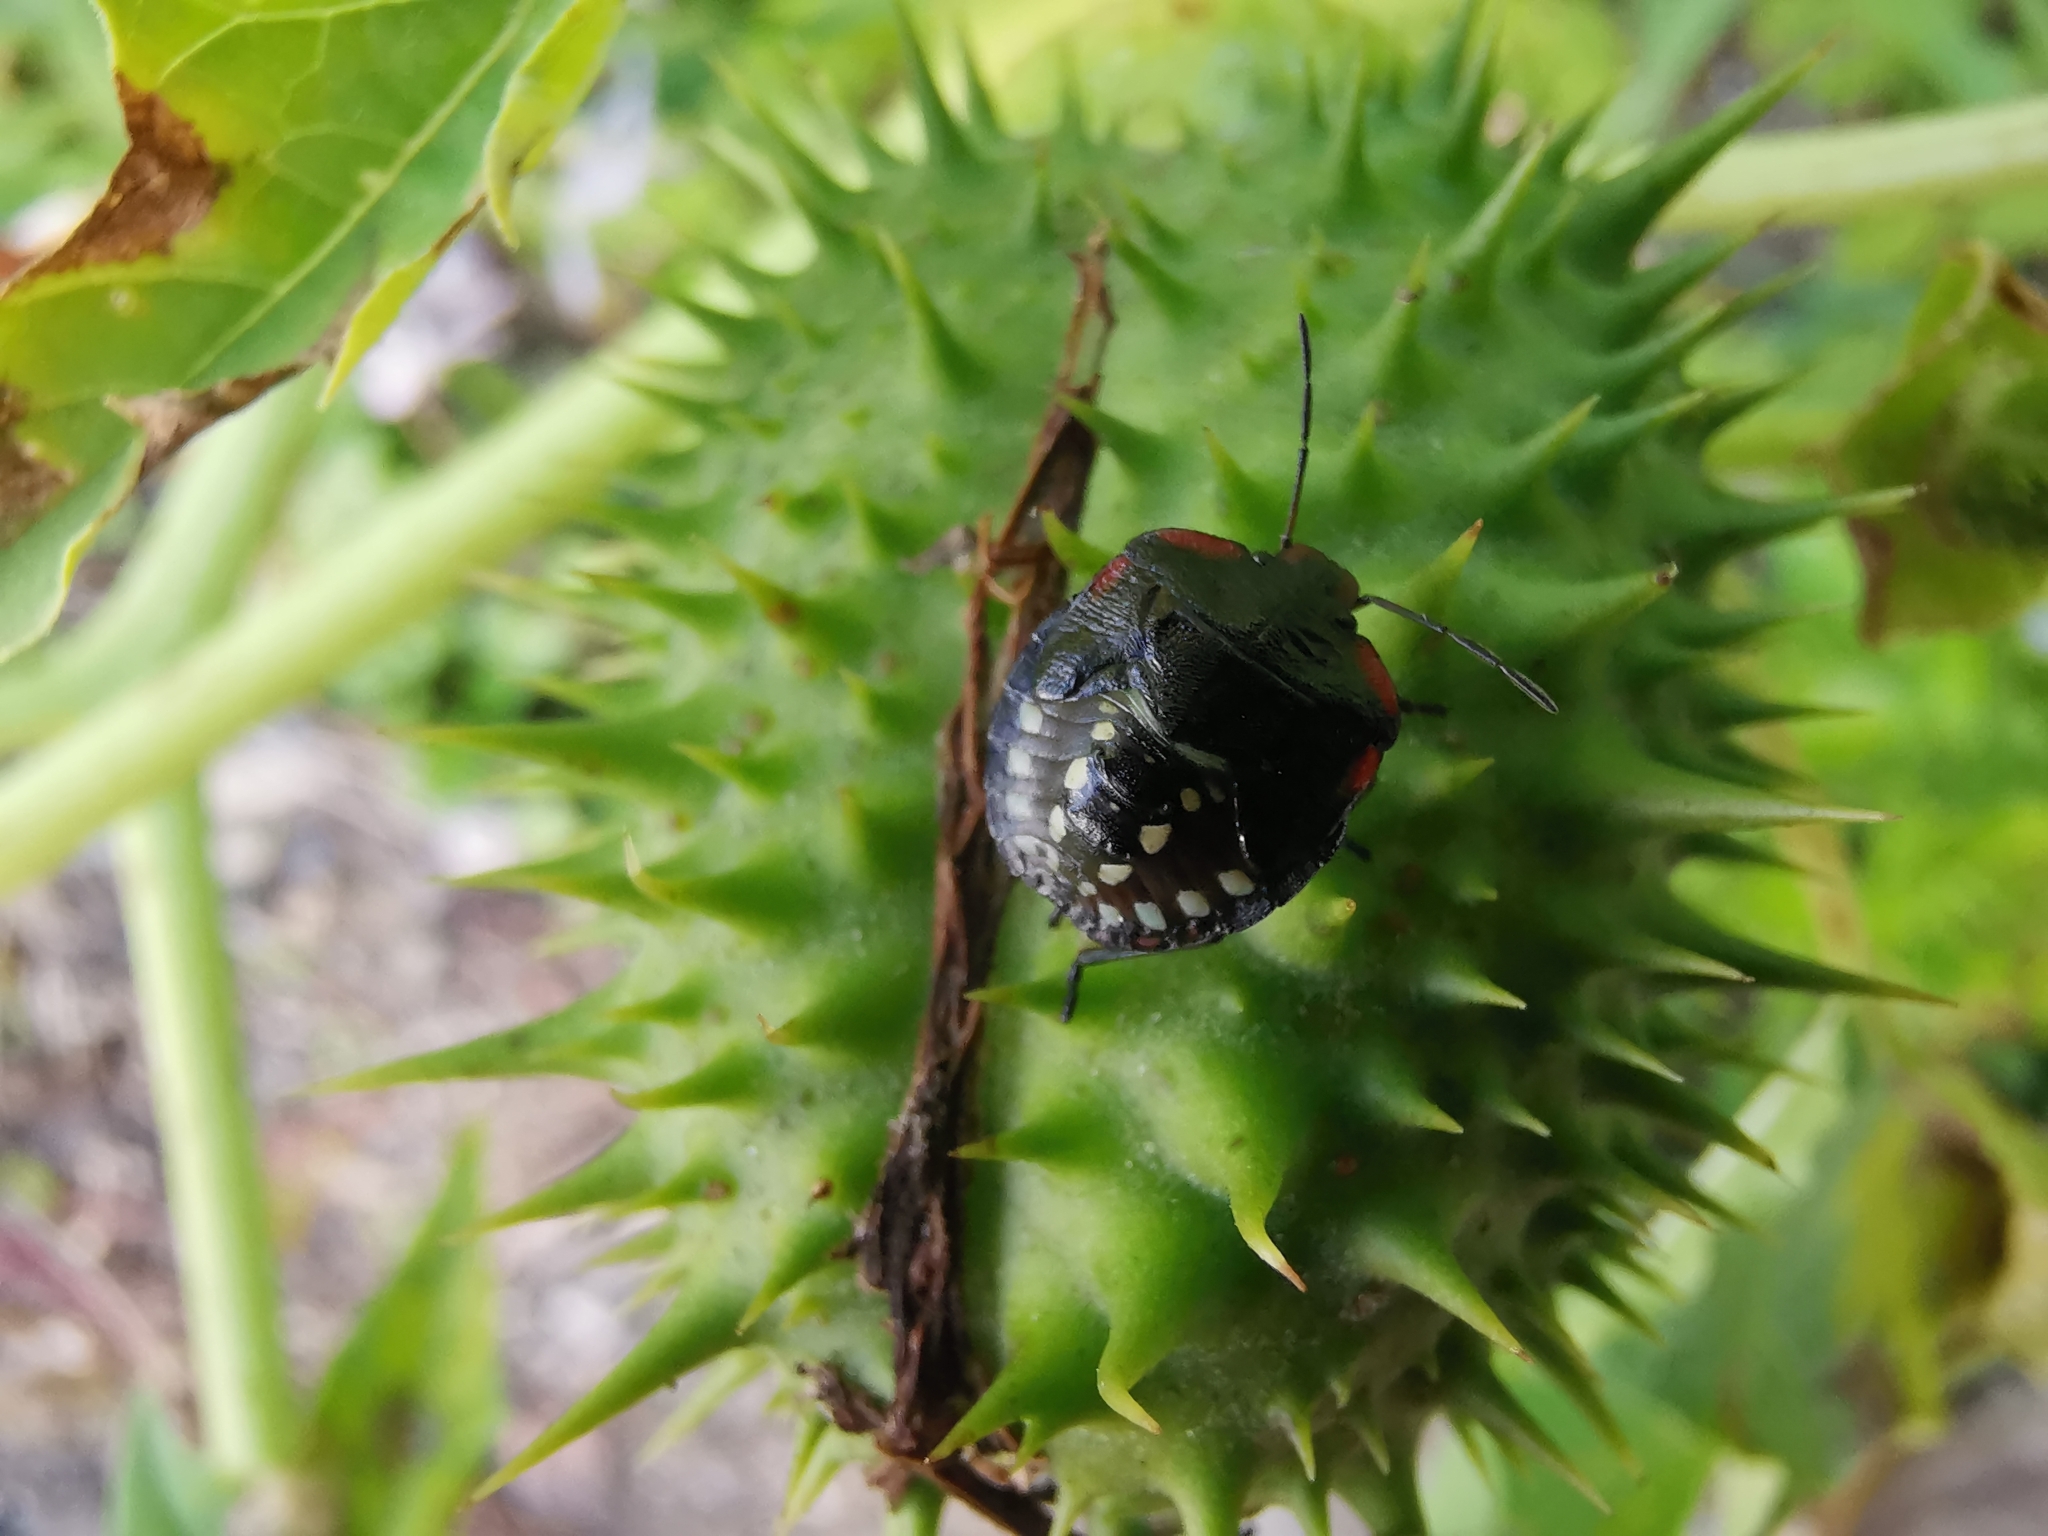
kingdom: Animalia
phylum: Arthropoda
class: Insecta
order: Hemiptera
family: Pentatomidae
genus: Nezara
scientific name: Nezara viridula
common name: Southern green stink bug
